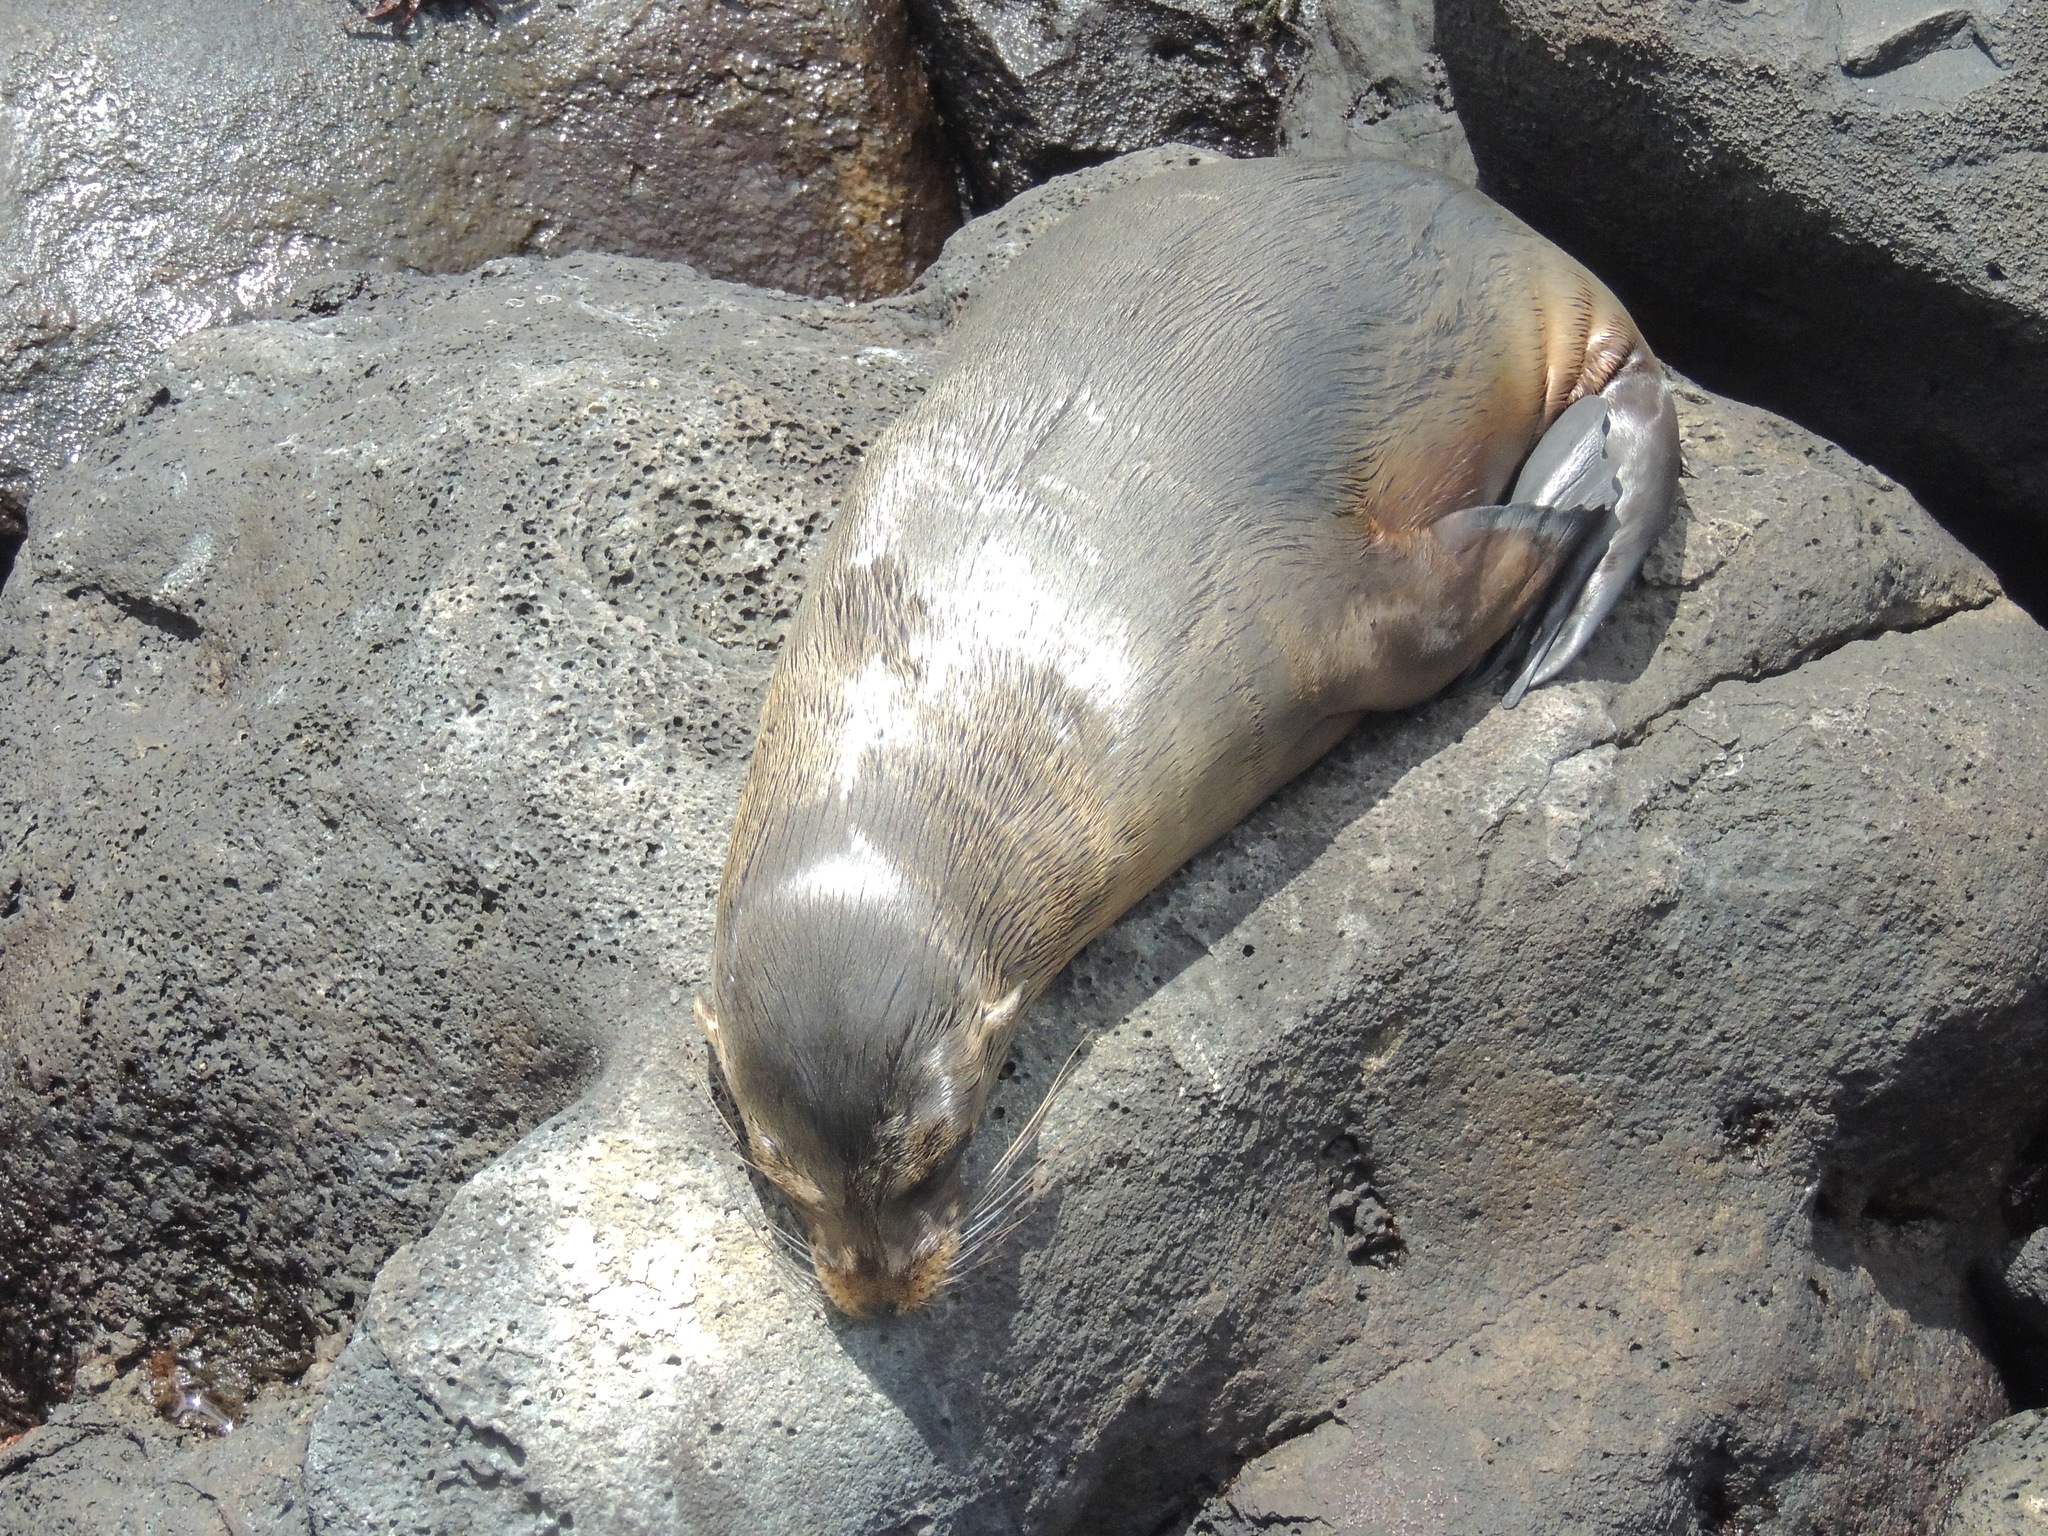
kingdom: Animalia
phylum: Chordata
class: Mammalia
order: Carnivora
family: Otariidae
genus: Zalophus
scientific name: Zalophus wollebaeki
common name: Galapagos sea lion
